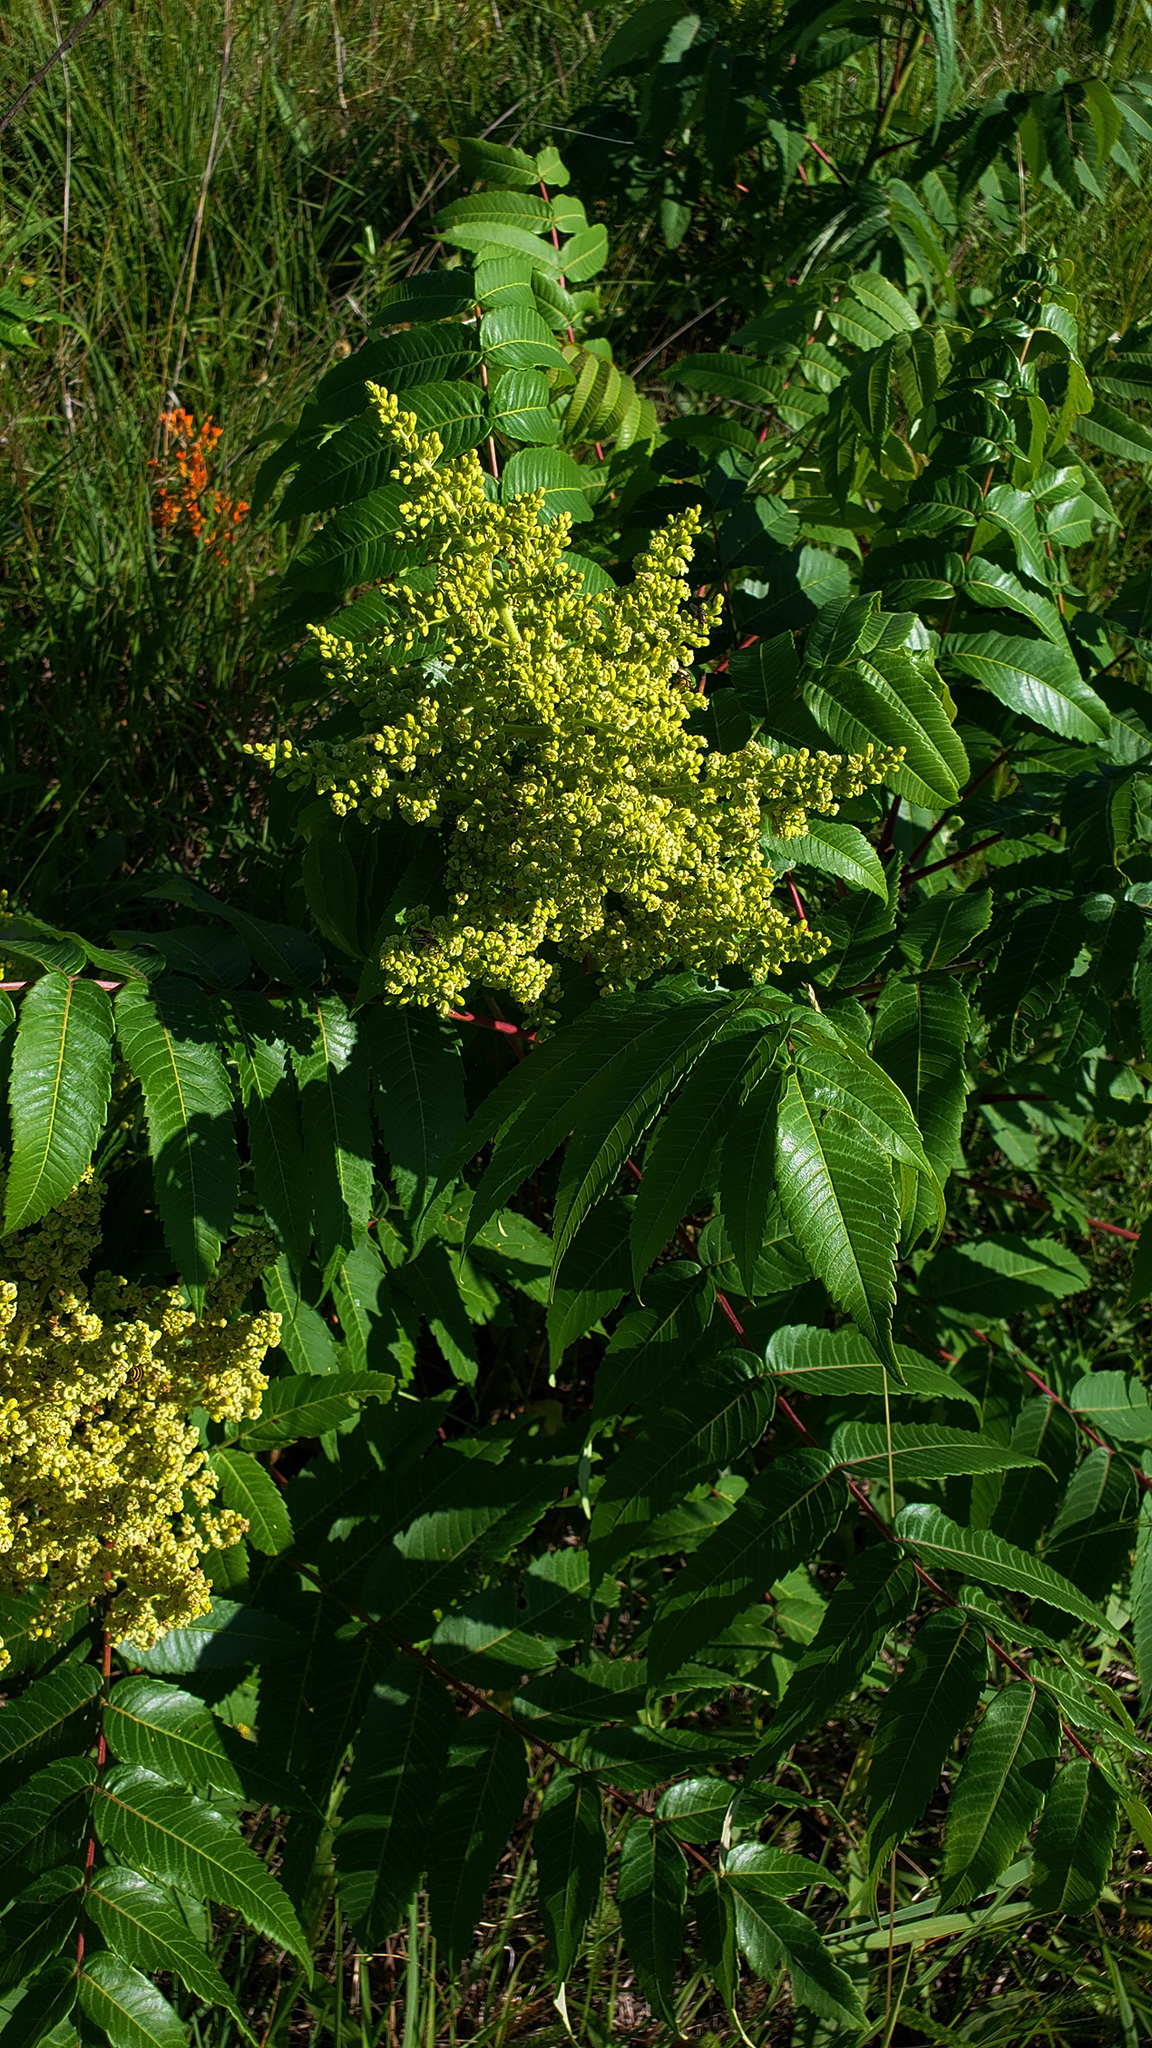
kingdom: Plantae
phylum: Tracheophyta
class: Magnoliopsida
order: Sapindales
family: Anacardiaceae
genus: Rhus
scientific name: Rhus glabra
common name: Scarlet sumac
